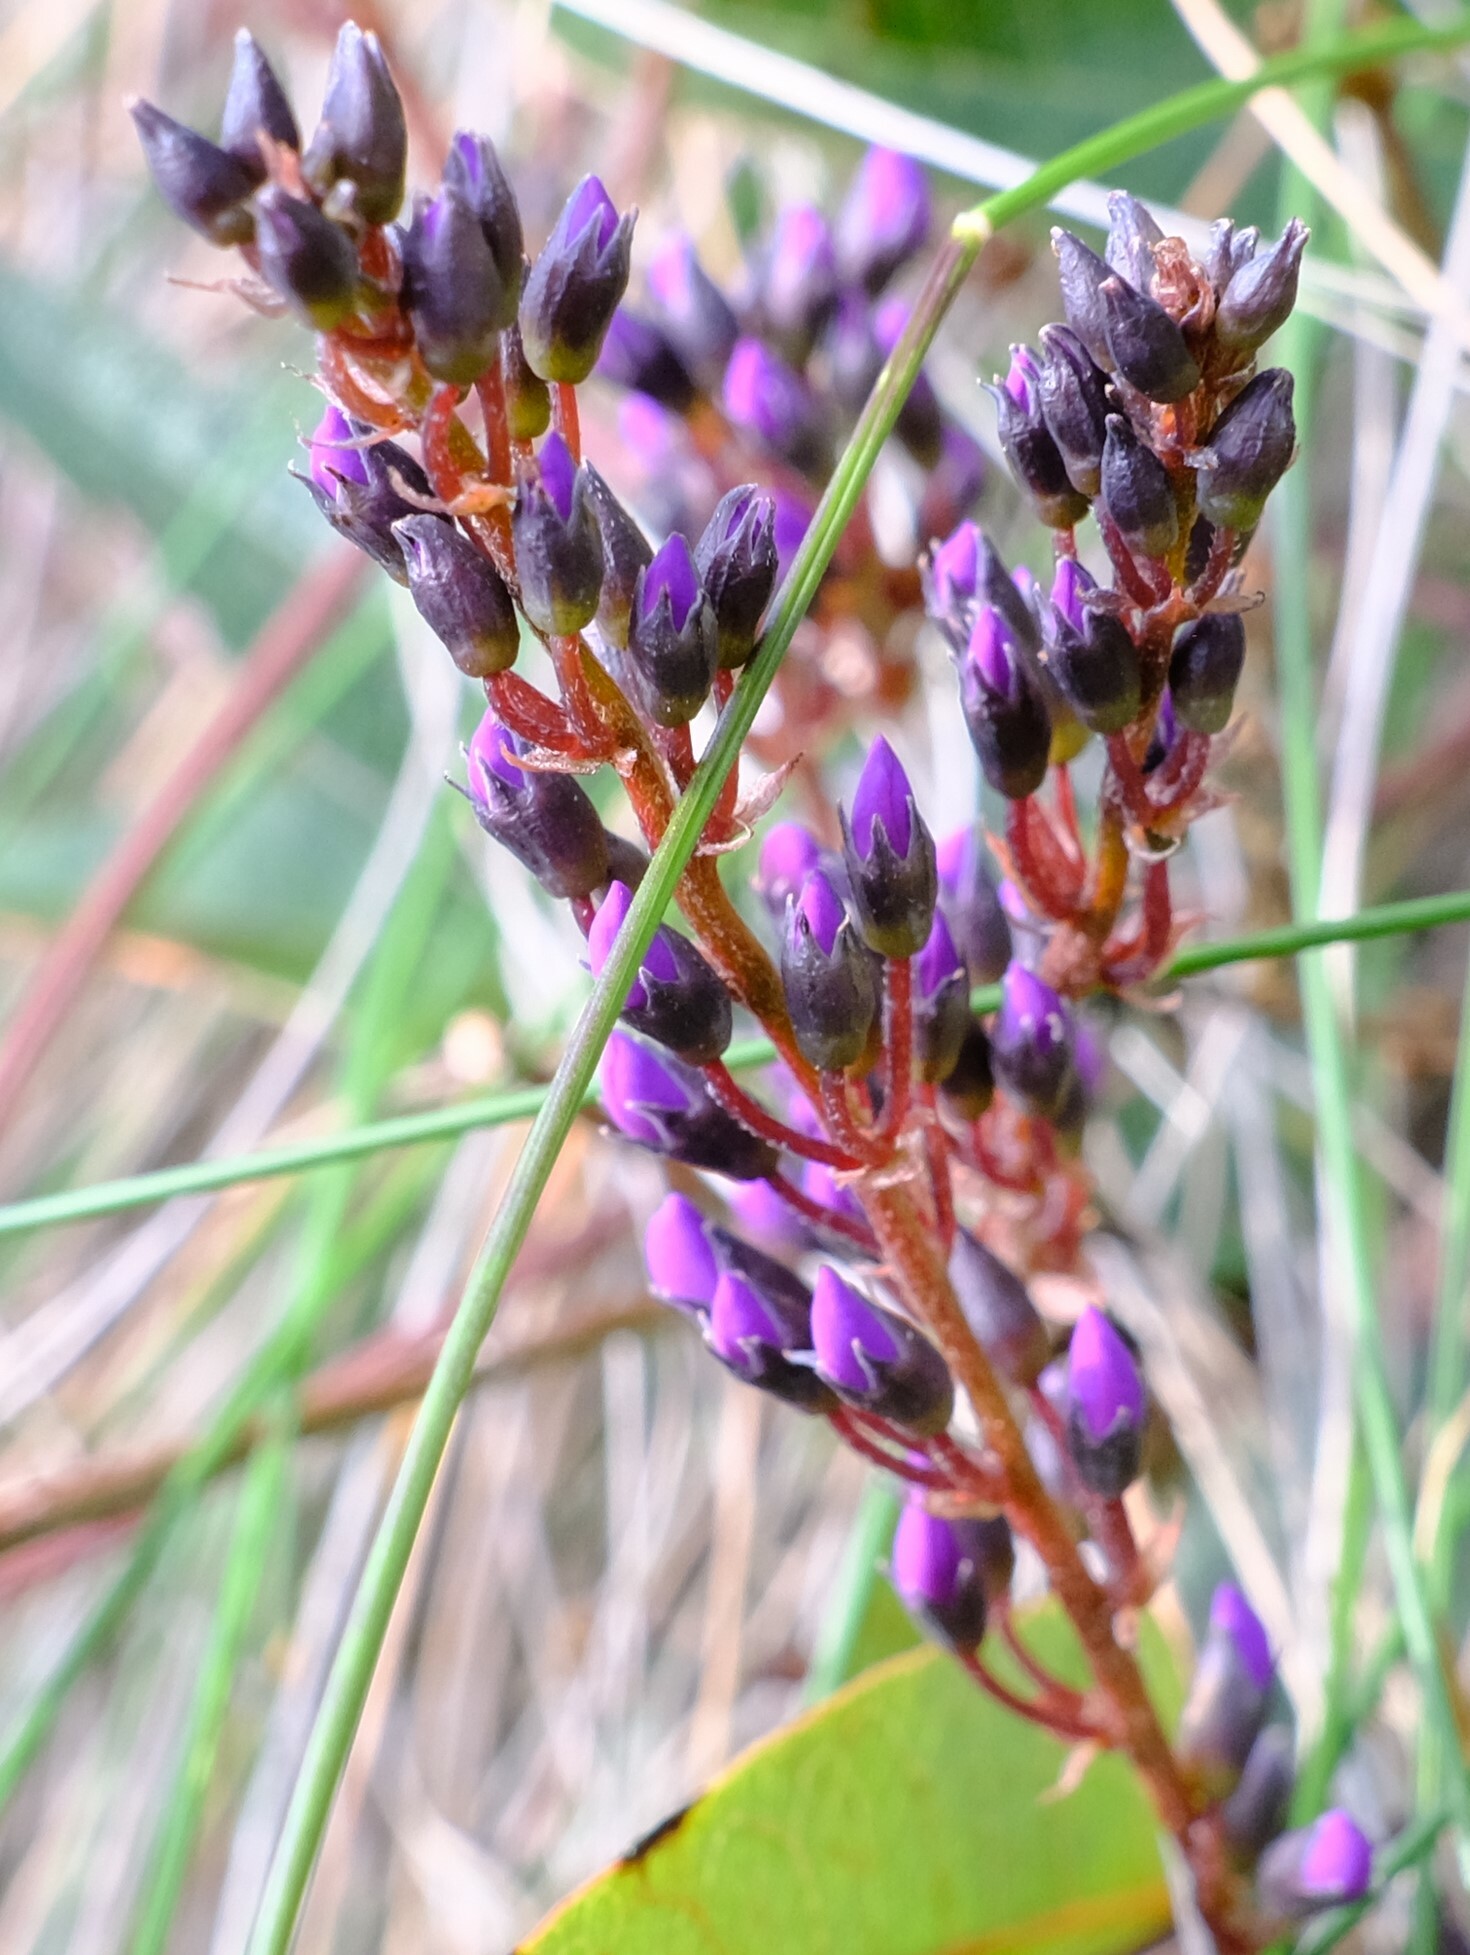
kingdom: Plantae
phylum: Tracheophyta
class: Magnoliopsida
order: Fabales
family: Fabaceae
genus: Hardenbergia
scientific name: Hardenbergia violacea
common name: Coral-pea
